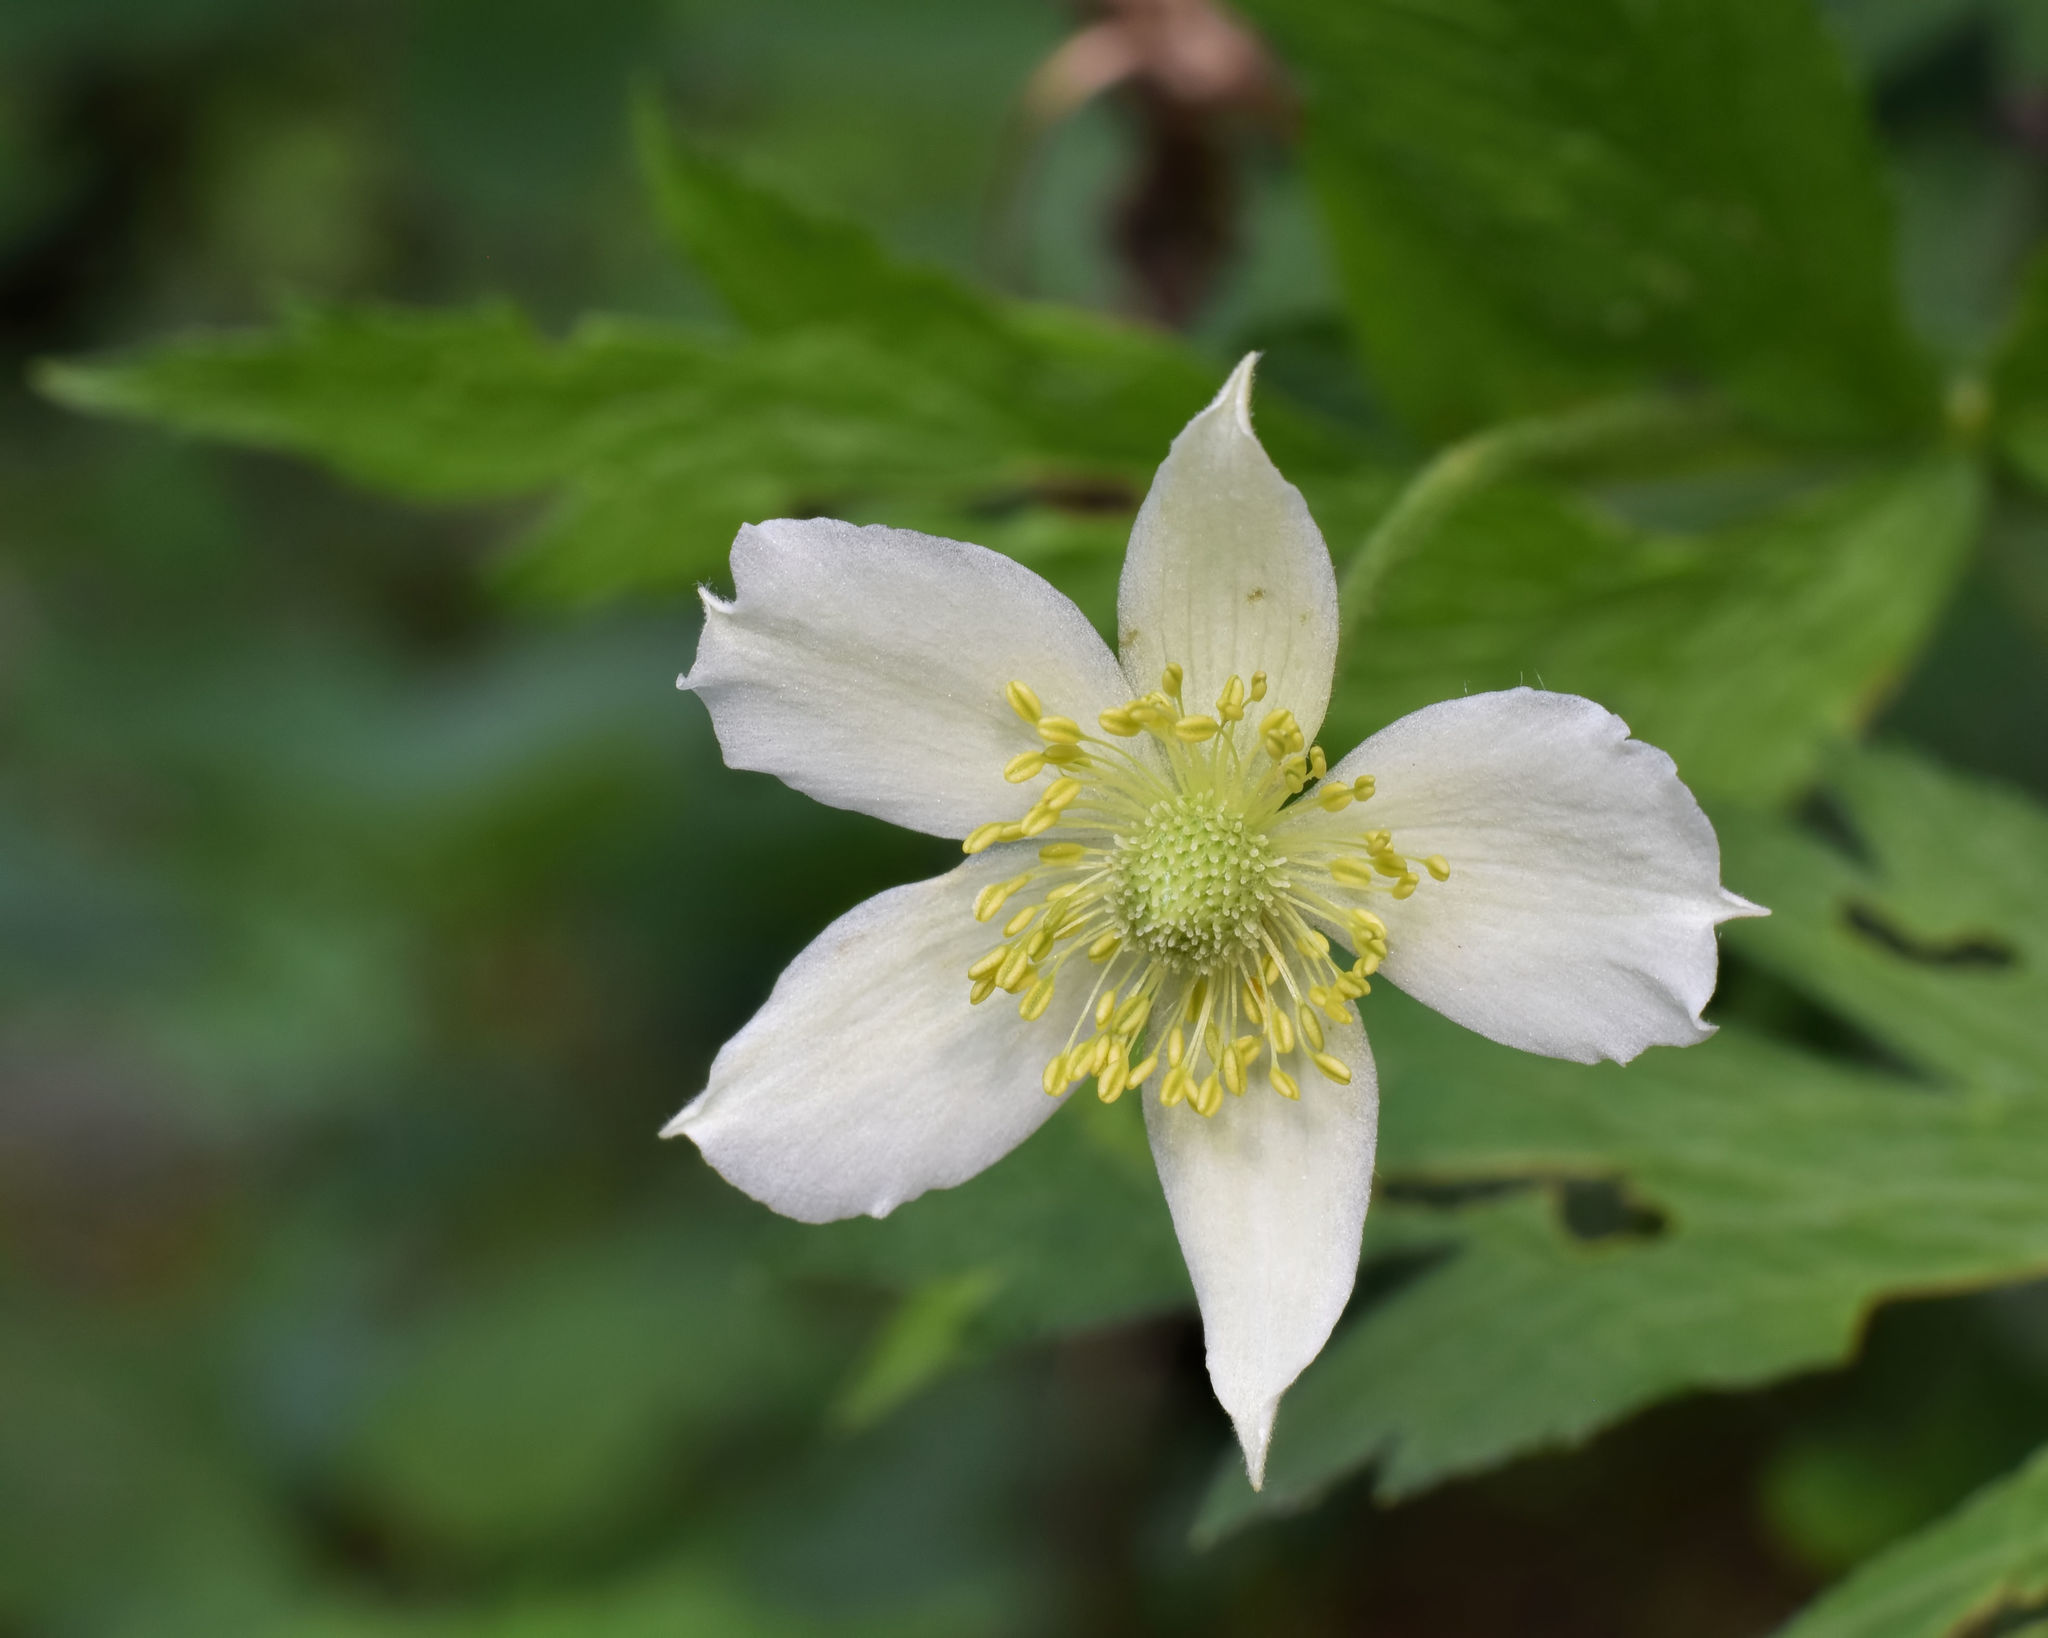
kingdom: Plantae
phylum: Tracheophyta
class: Magnoliopsida
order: Ranunculales
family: Ranunculaceae
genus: Anemone
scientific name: Anemone virginiana
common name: Tall anemone
